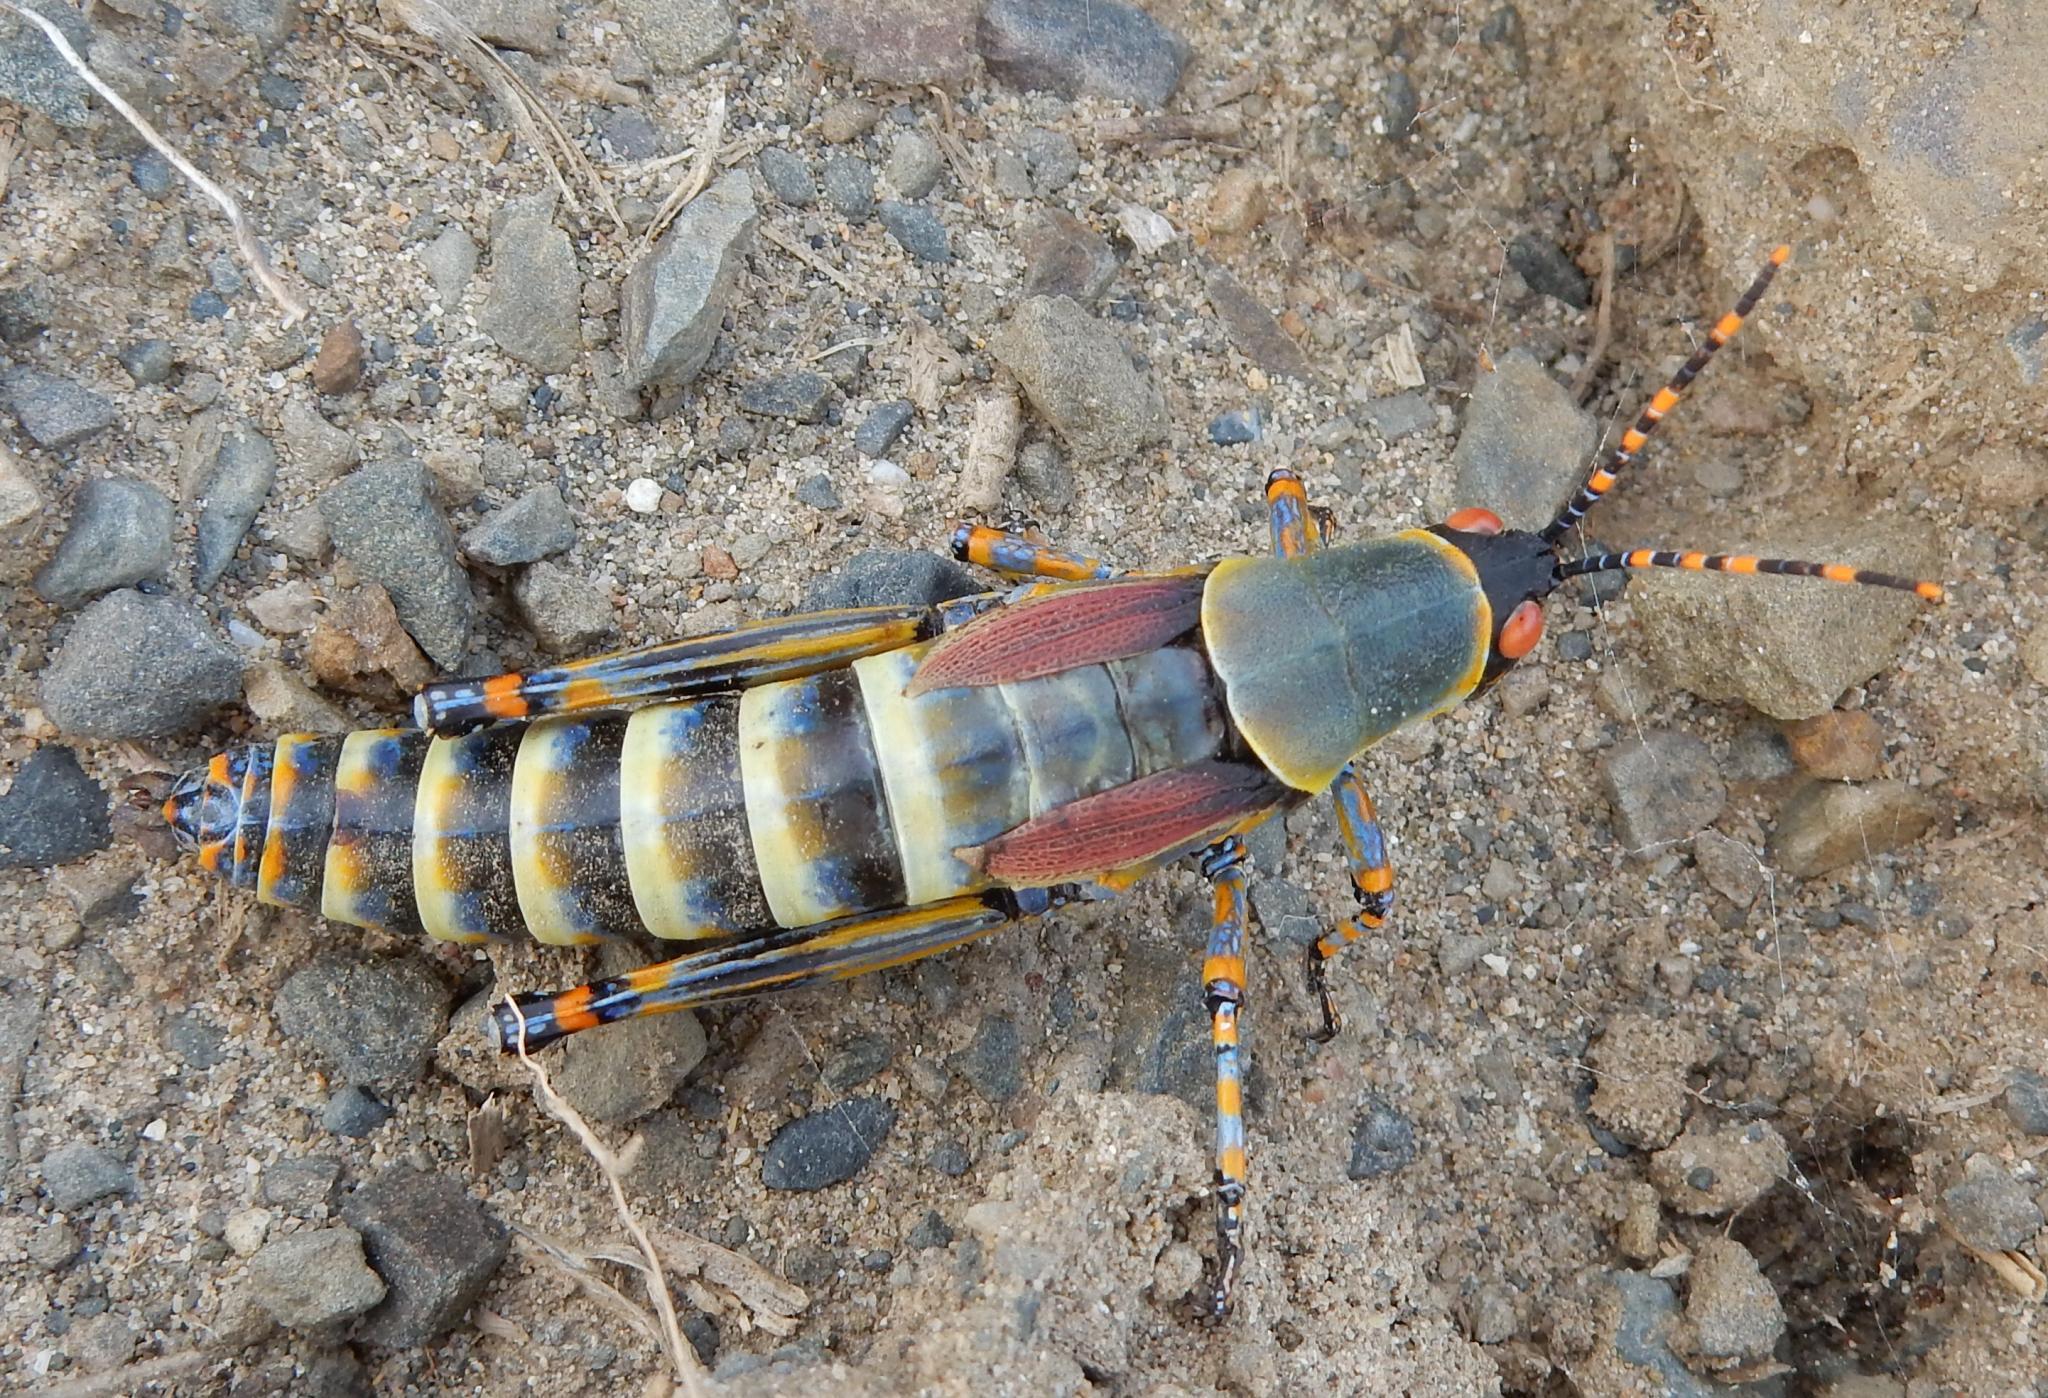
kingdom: Animalia
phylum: Arthropoda
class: Insecta
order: Orthoptera
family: Pyrgomorphidae
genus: Zonocerus
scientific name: Zonocerus elegans
